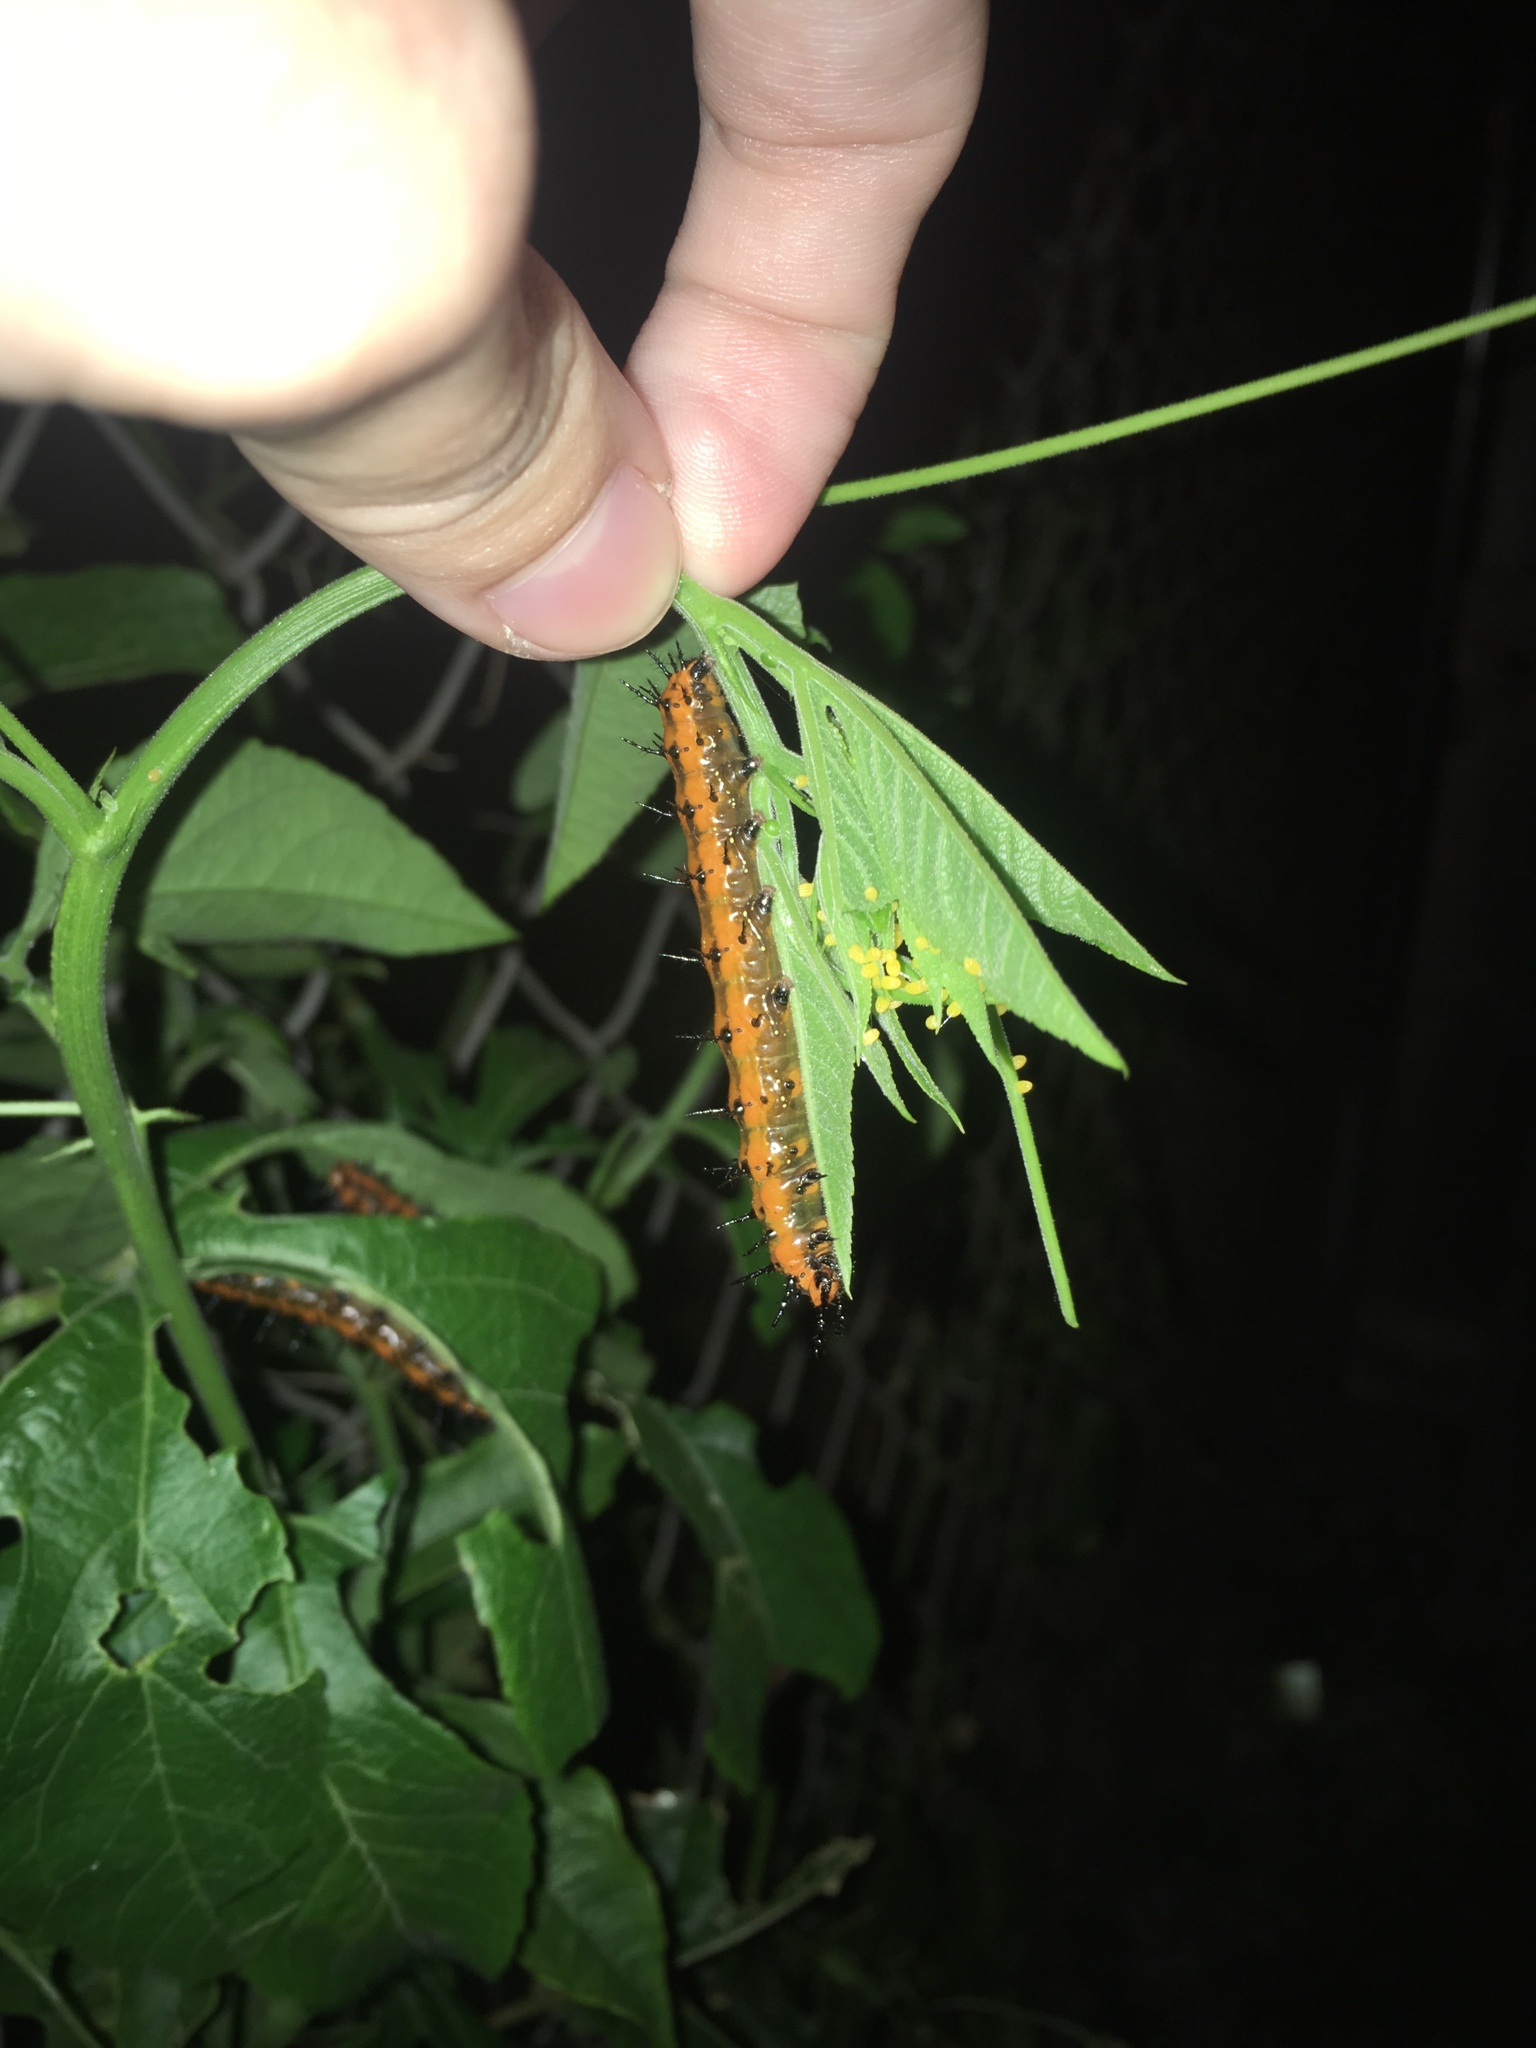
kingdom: Animalia
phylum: Arthropoda
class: Insecta
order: Lepidoptera
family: Nymphalidae
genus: Dione
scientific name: Dione vanillae
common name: Gulf fritillary
